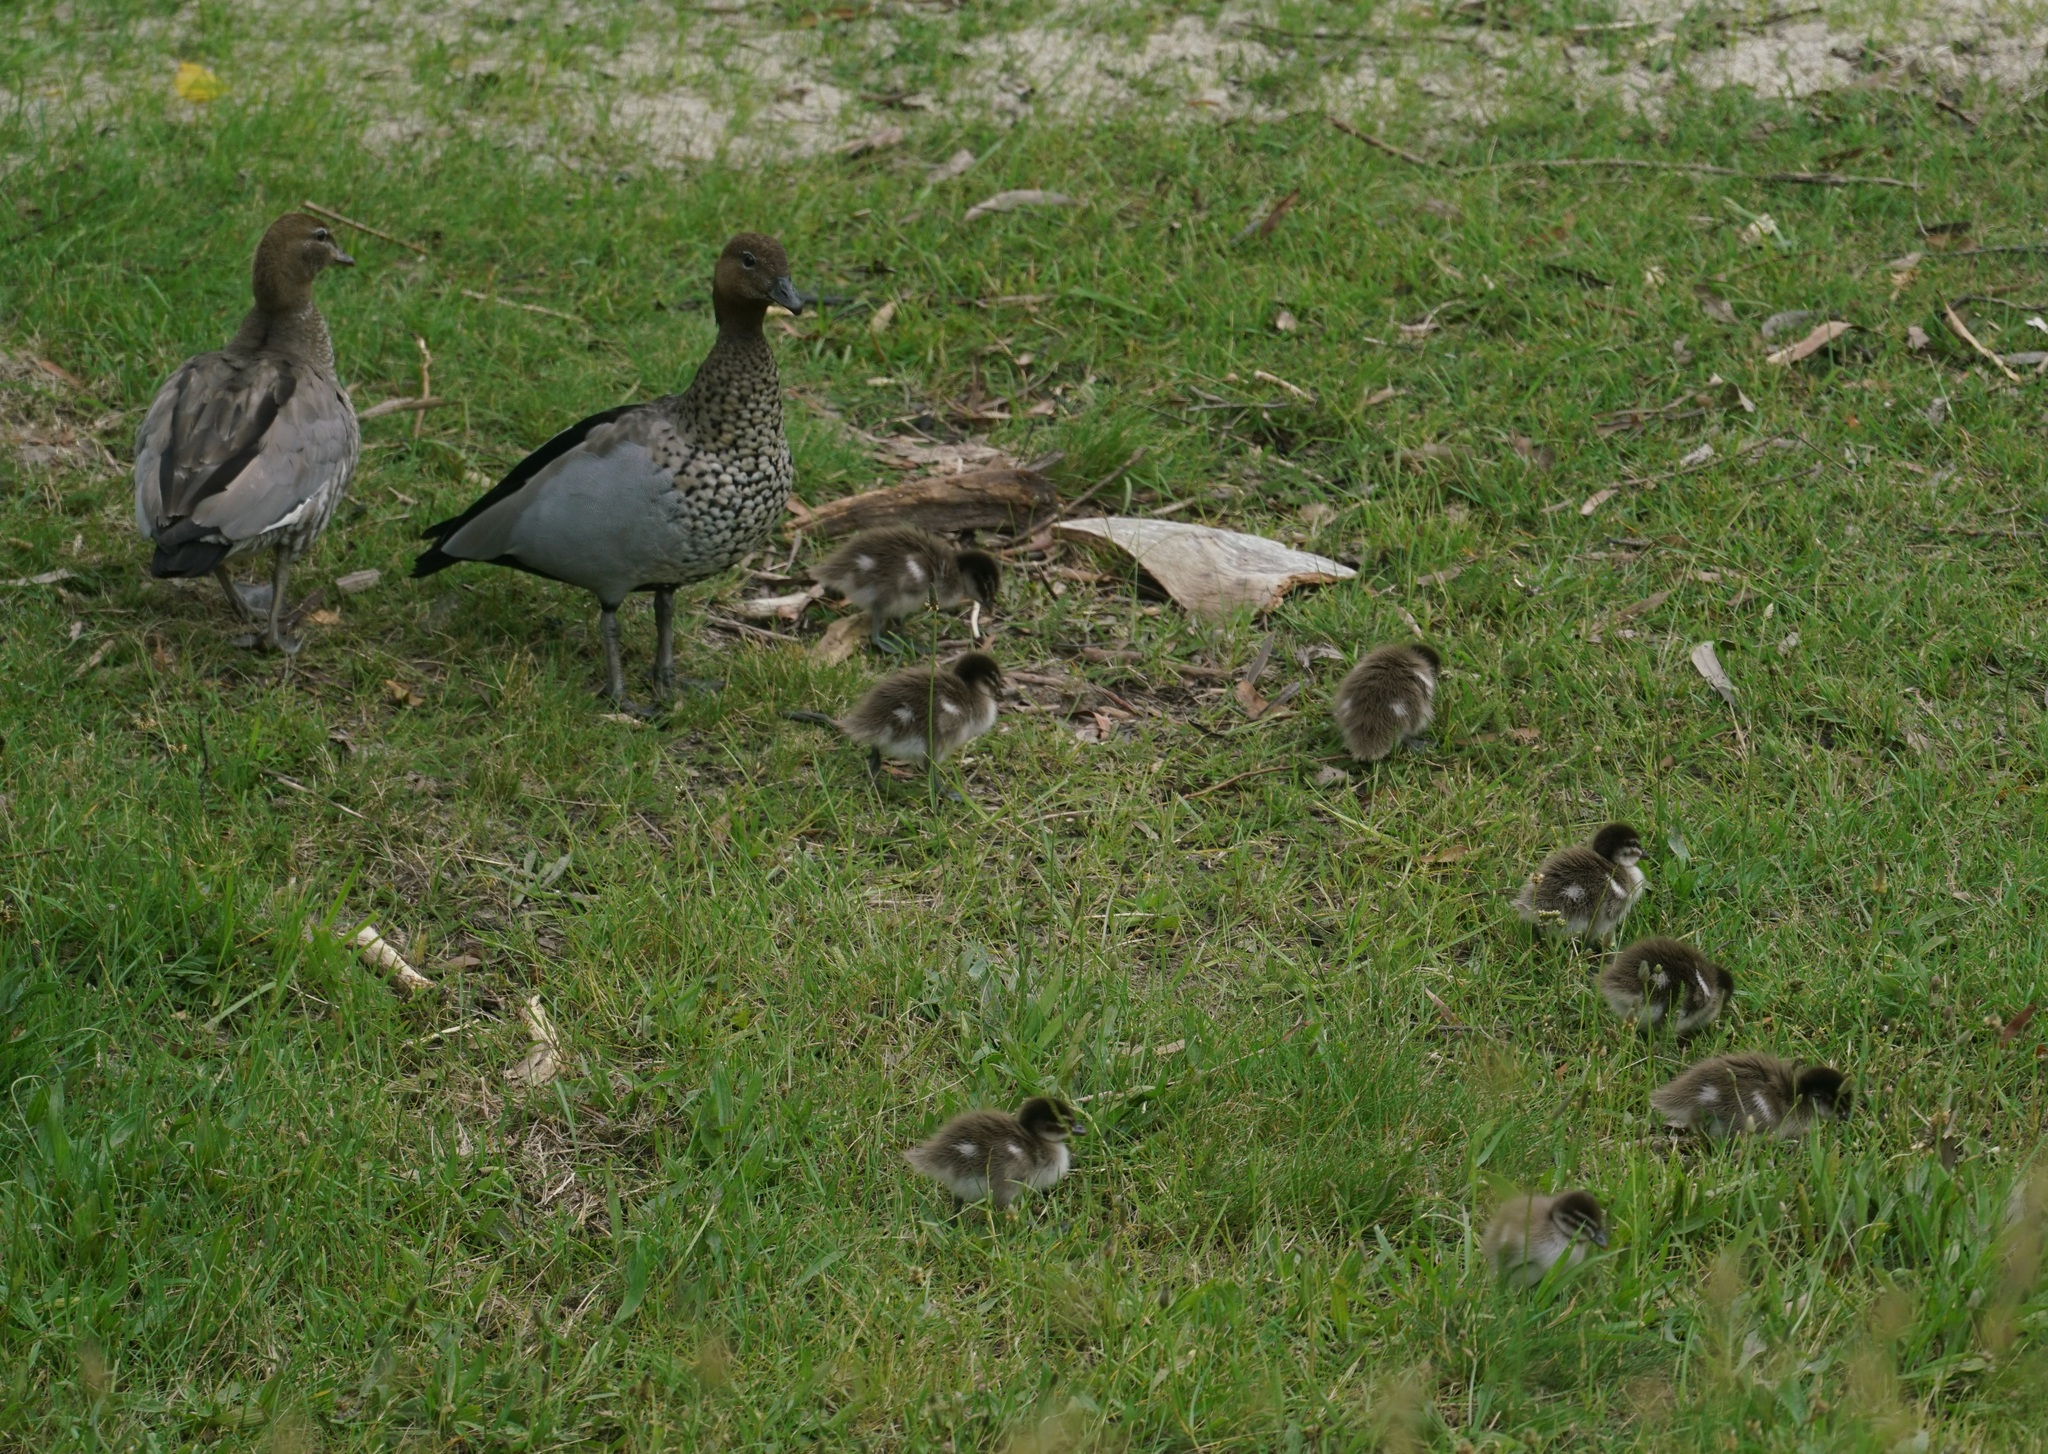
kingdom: Animalia
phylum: Chordata
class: Aves
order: Anseriformes
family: Anatidae
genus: Chenonetta
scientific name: Chenonetta jubata
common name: Maned duck
